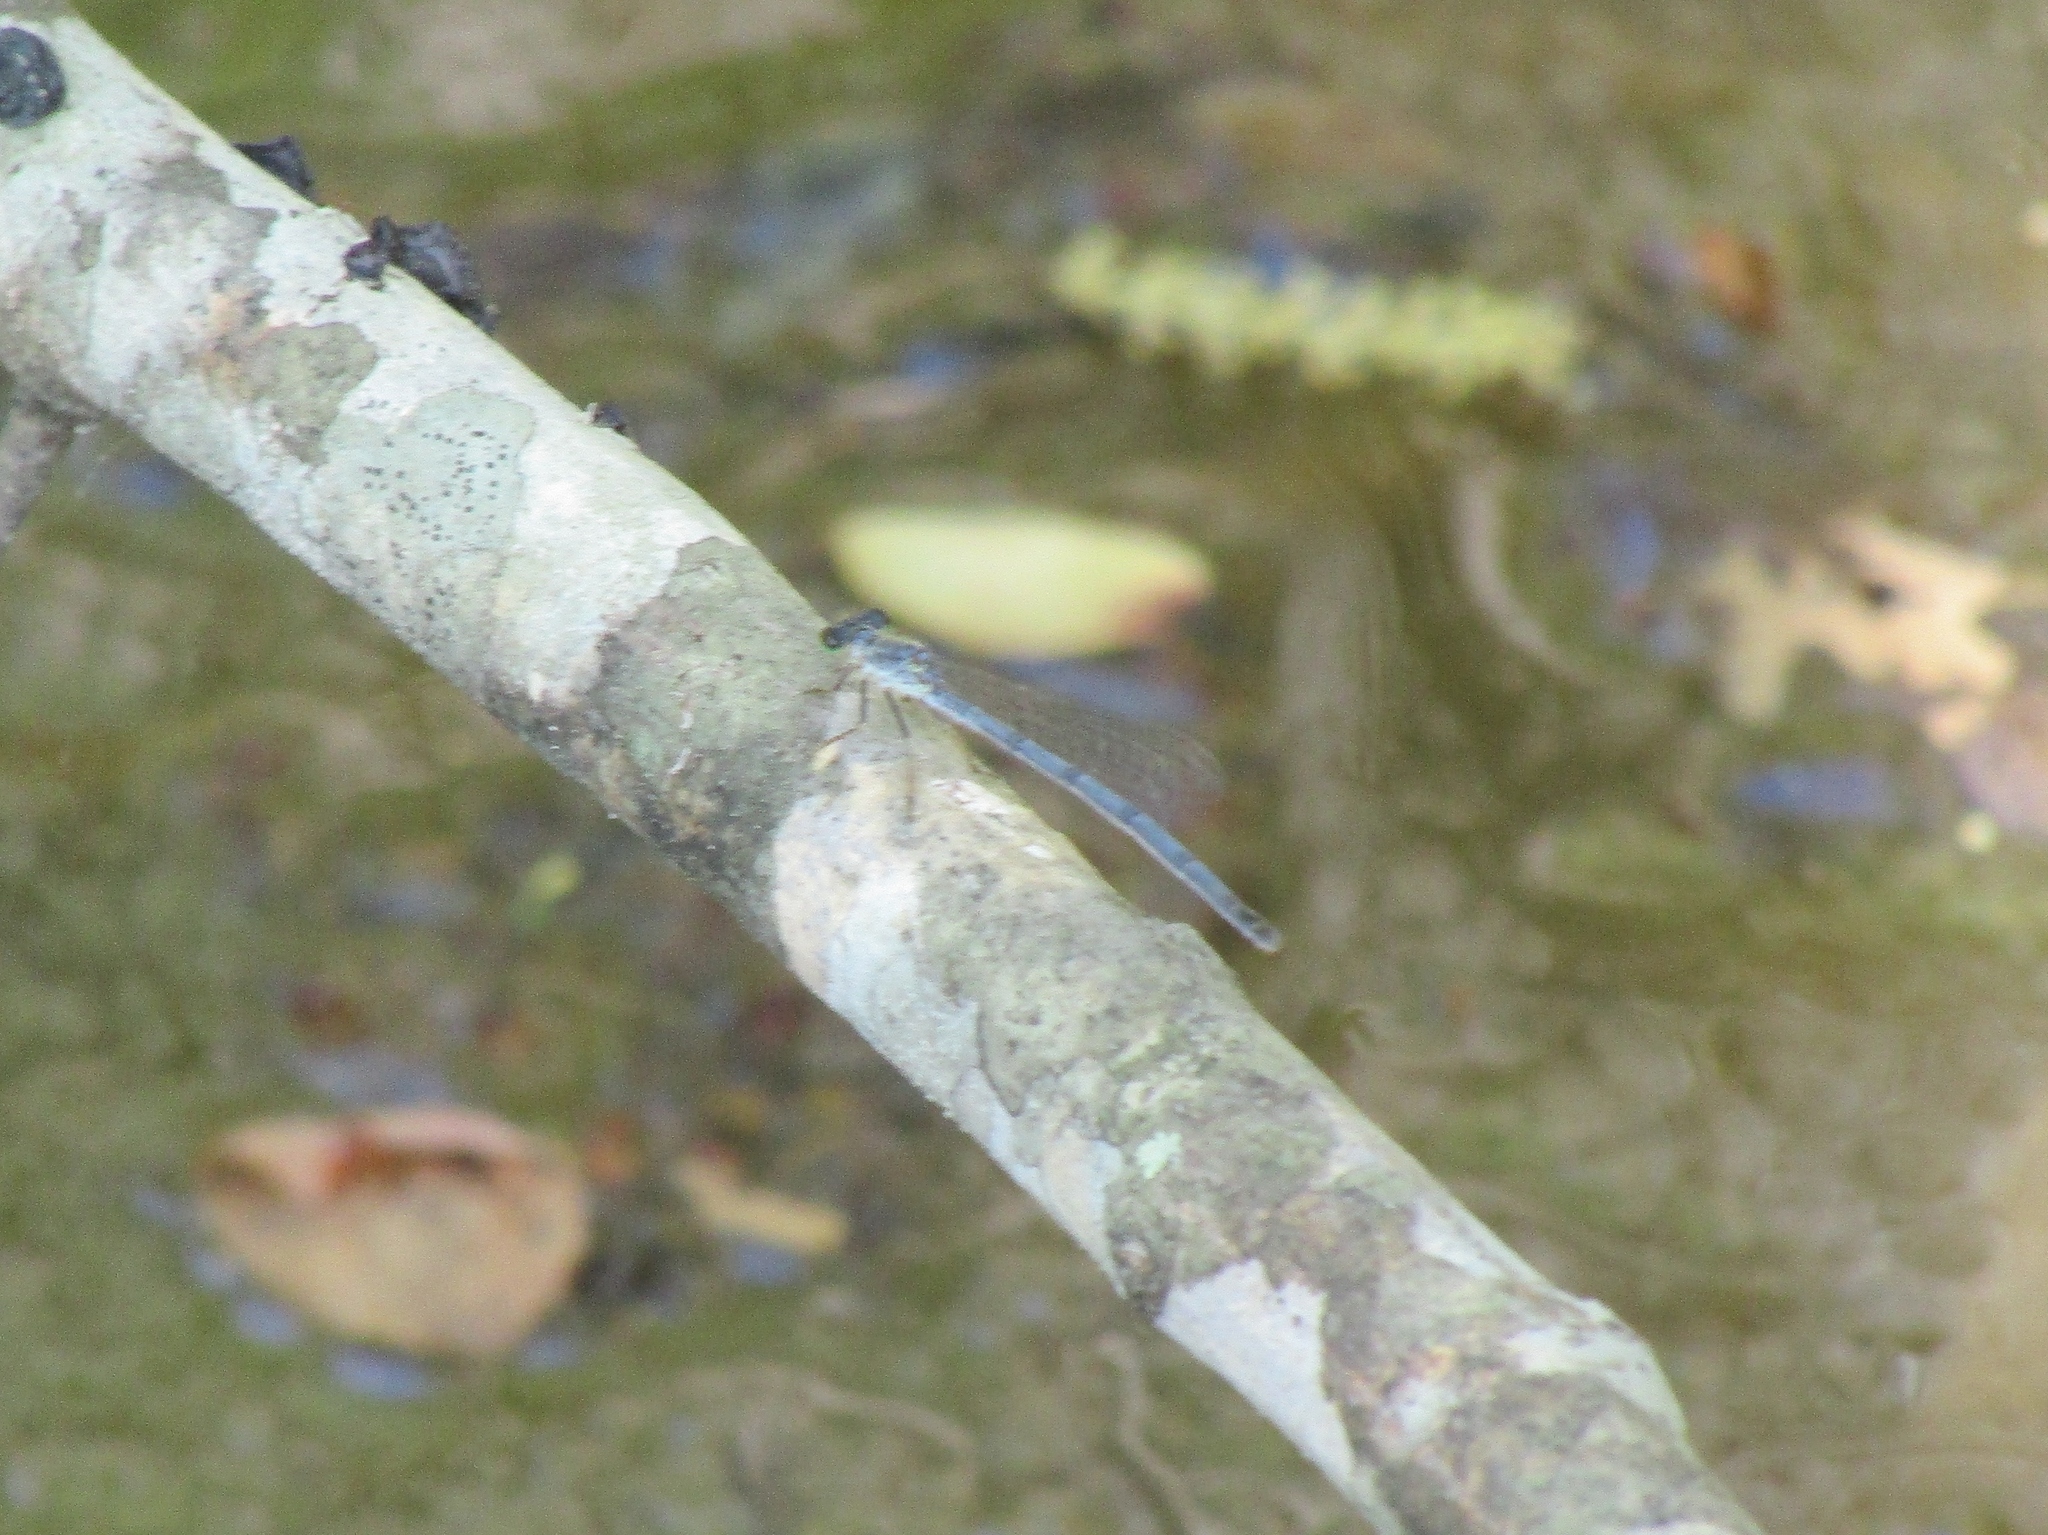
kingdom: Animalia
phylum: Arthropoda
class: Insecta
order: Odonata
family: Coenagrionidae
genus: Ischnura
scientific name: Ischnura posita
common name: Fragile forktail
